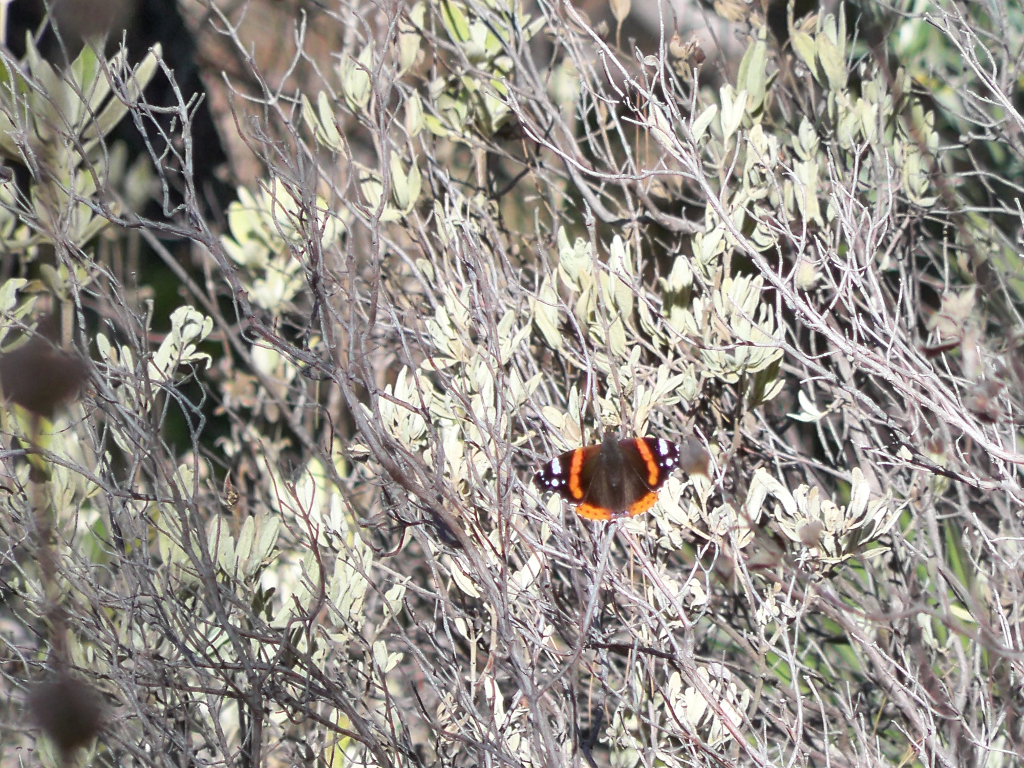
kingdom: Animalia
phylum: Arthropoda
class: Insecta
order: Lepidoptera
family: Nymphalidae
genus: Vanessa
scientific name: Vanessa atalanta
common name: Red admiral
